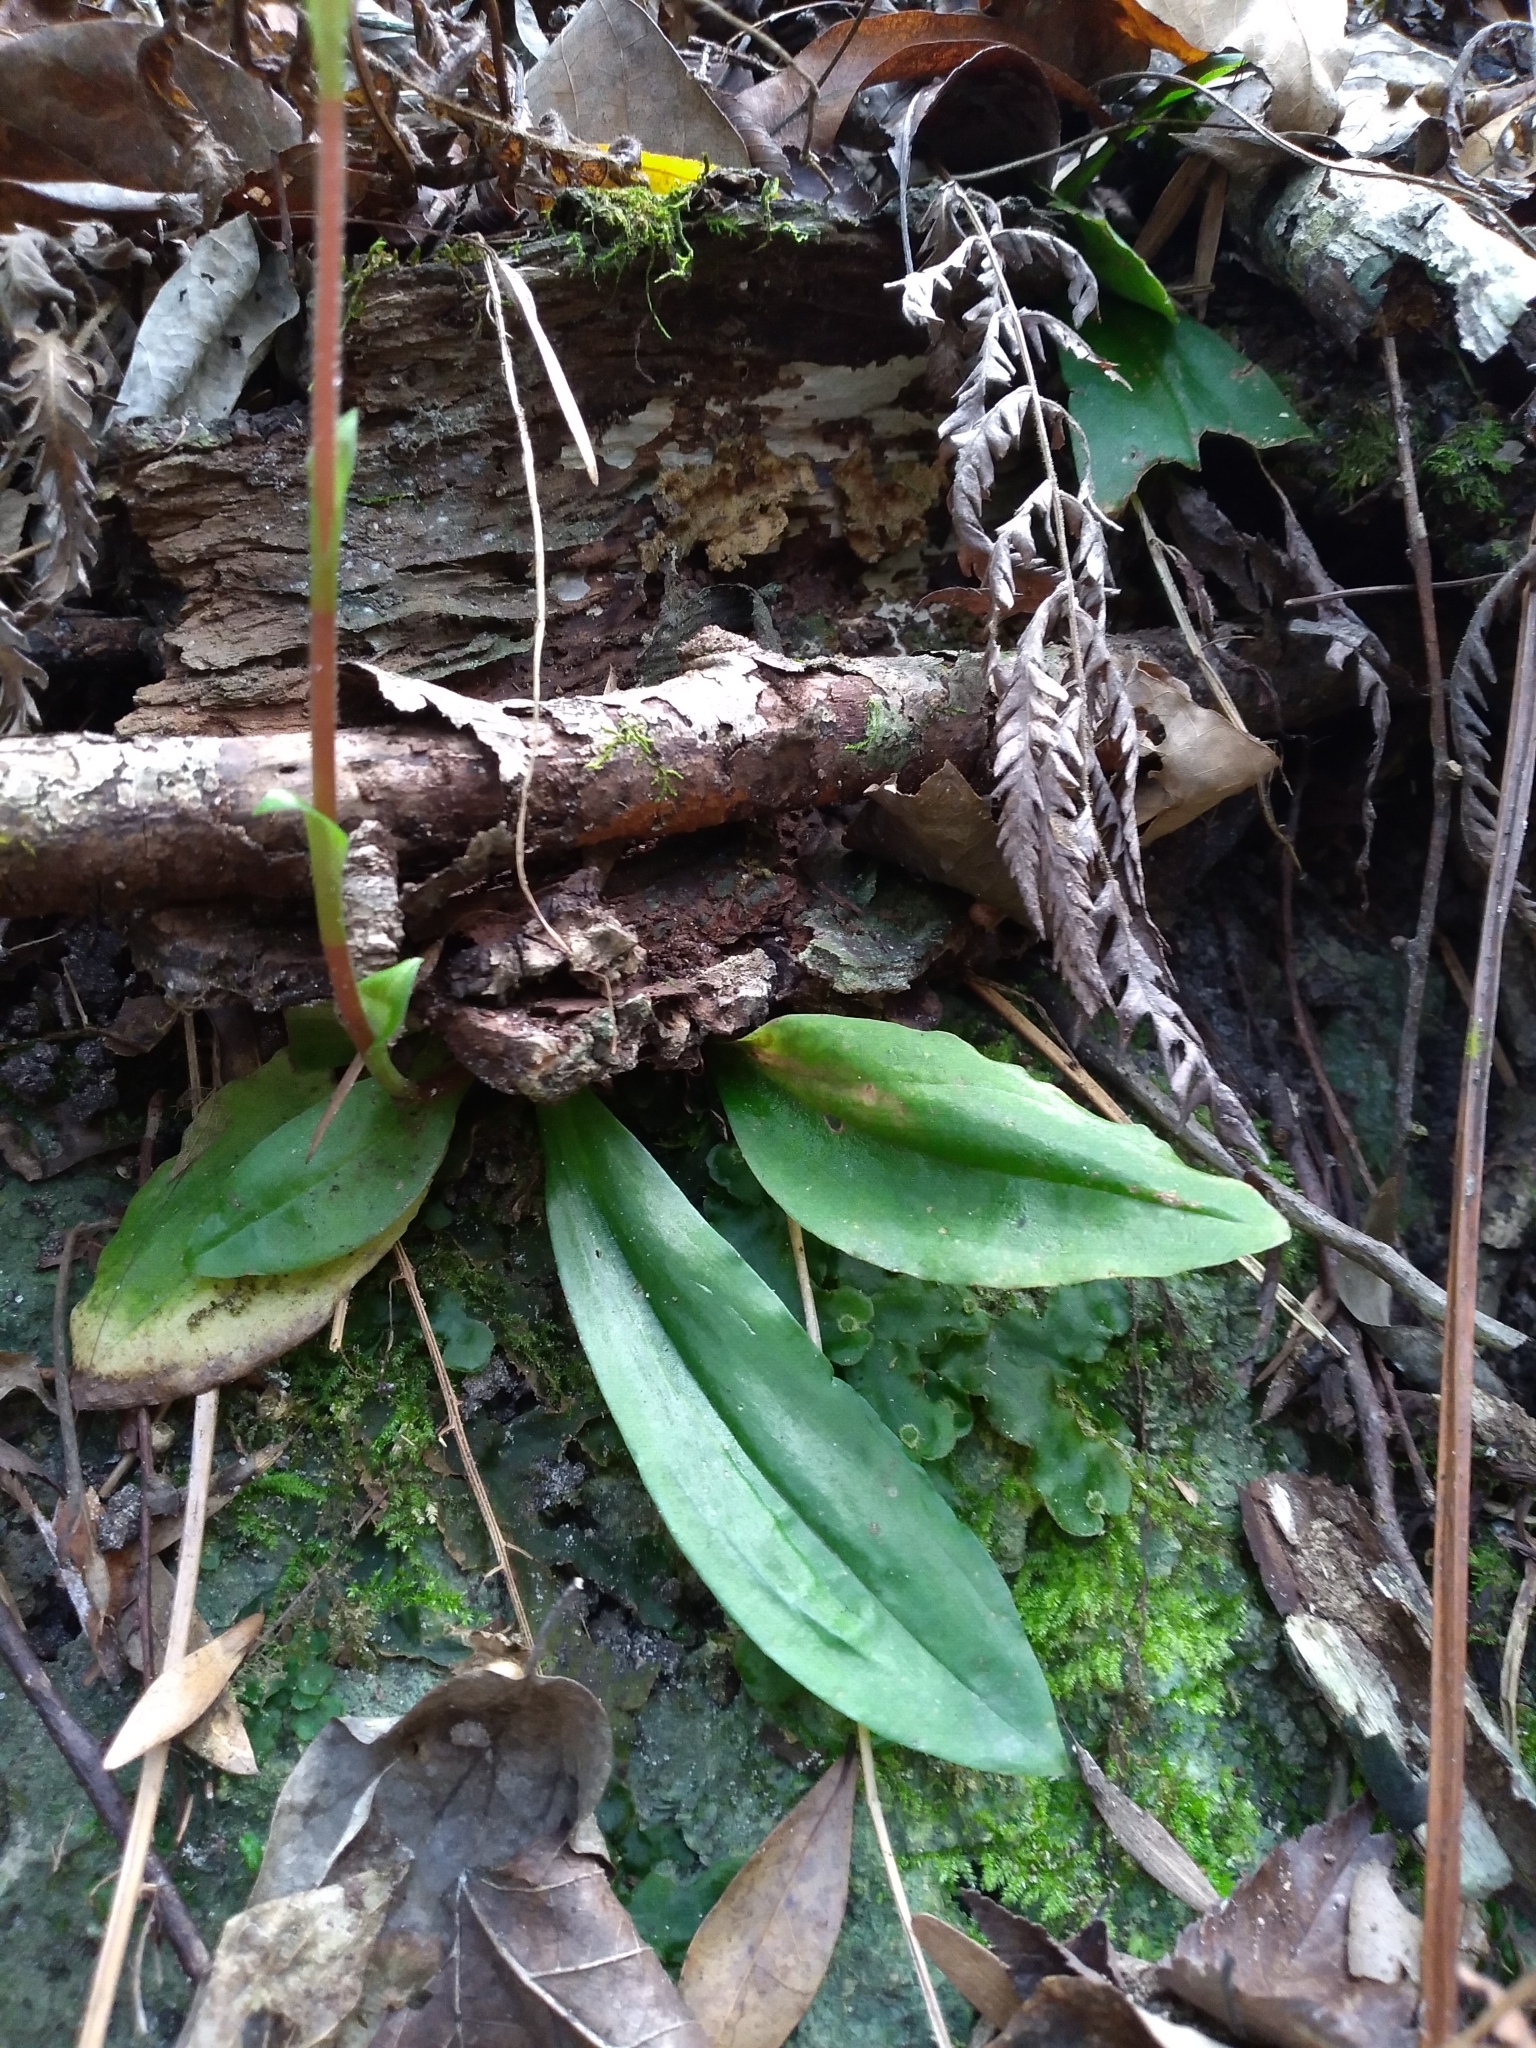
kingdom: Plantae
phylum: Tracheophyta
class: Liliopsida
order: Asparagales
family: Orchidaceae
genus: Ponthieva
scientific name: Ponthieva racemosa
